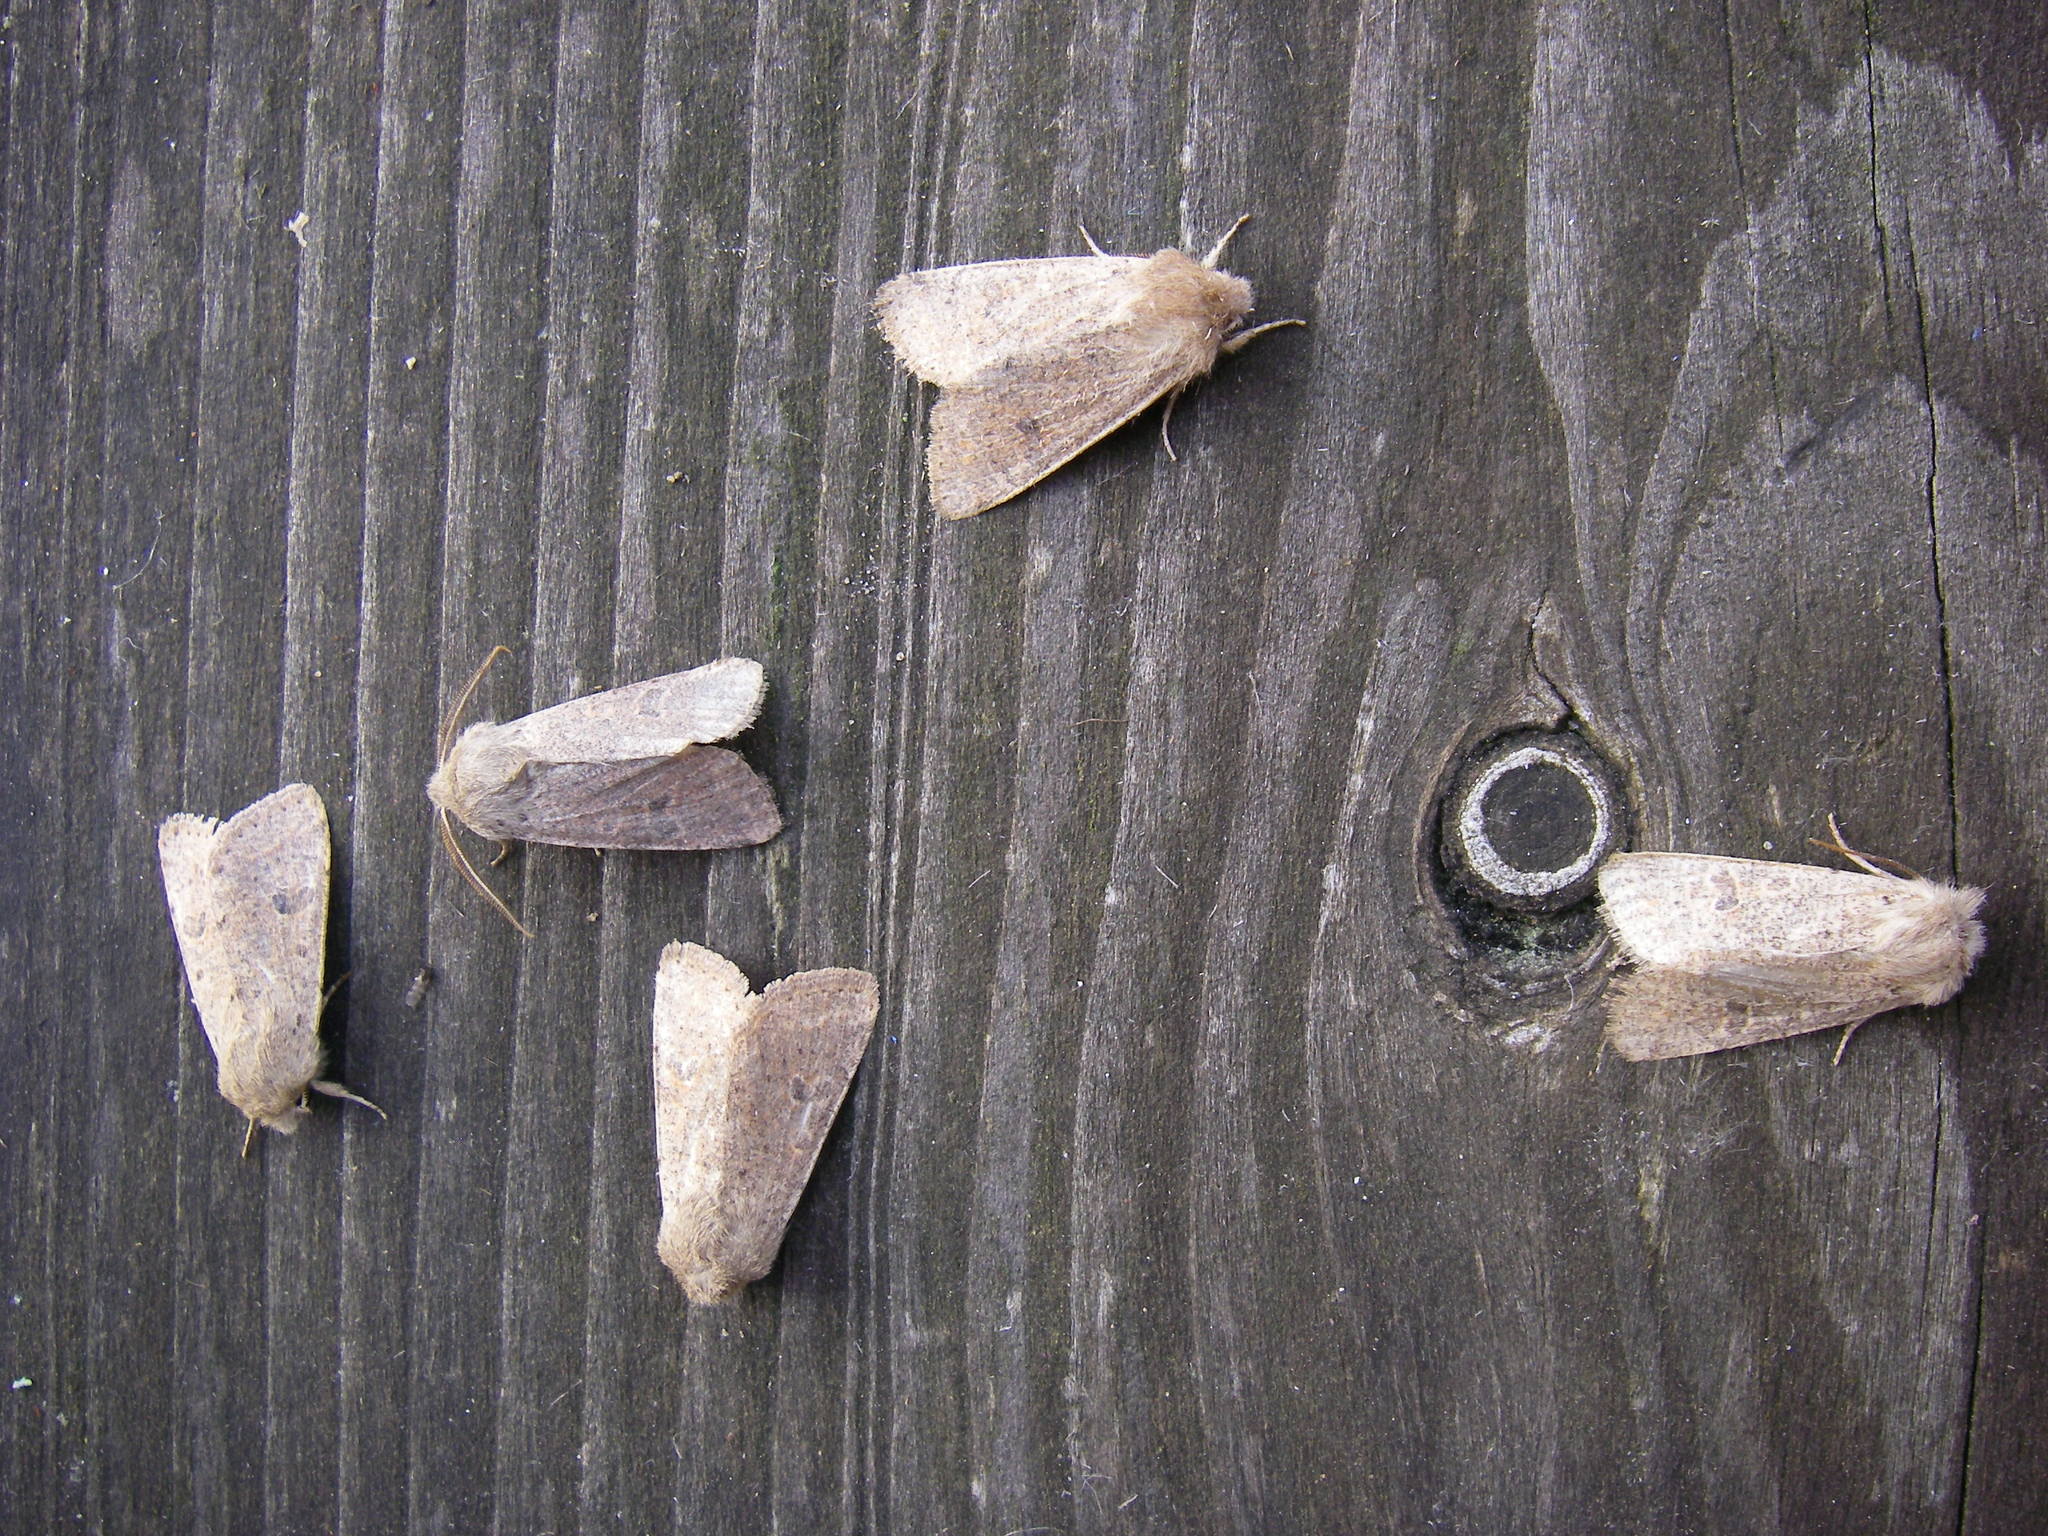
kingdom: Animalia
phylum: Arthropoda
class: Insecta
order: Lepidoptera
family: Noctuidae
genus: Orthosia
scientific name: Orthosia cruda
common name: Small quaker
